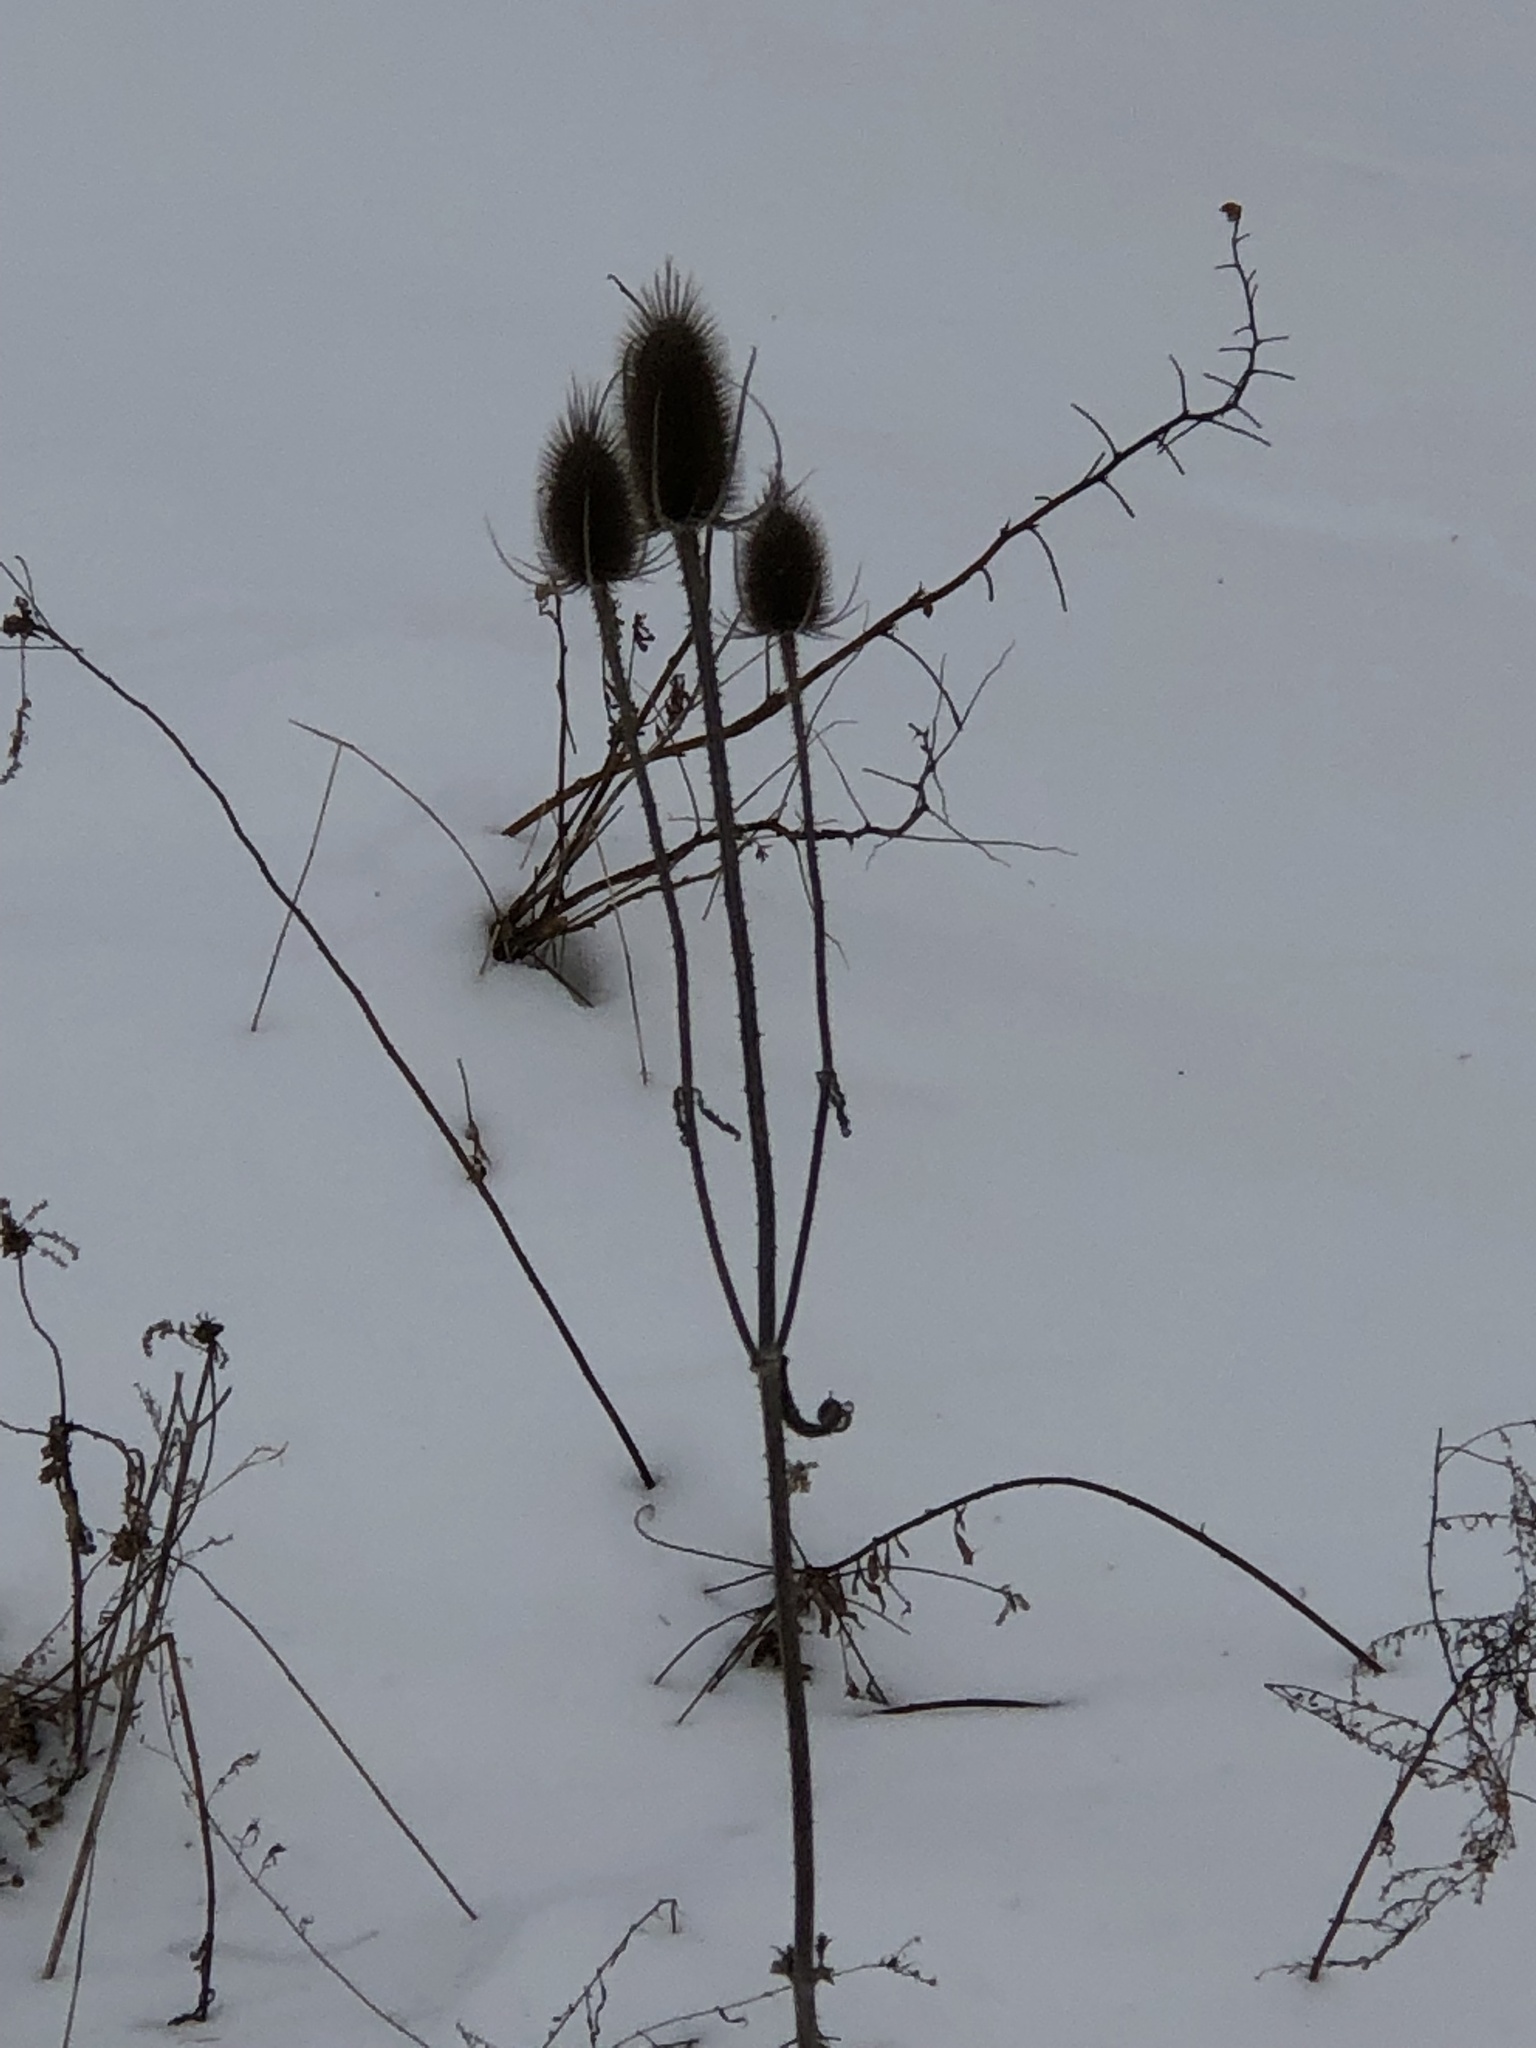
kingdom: Plantae
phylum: Tracheophyta
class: Magnoliopsida
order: Dipsacales
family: Caprifoliaceae
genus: Dipsacus
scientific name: Dipsacus fullonum
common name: Teasel
